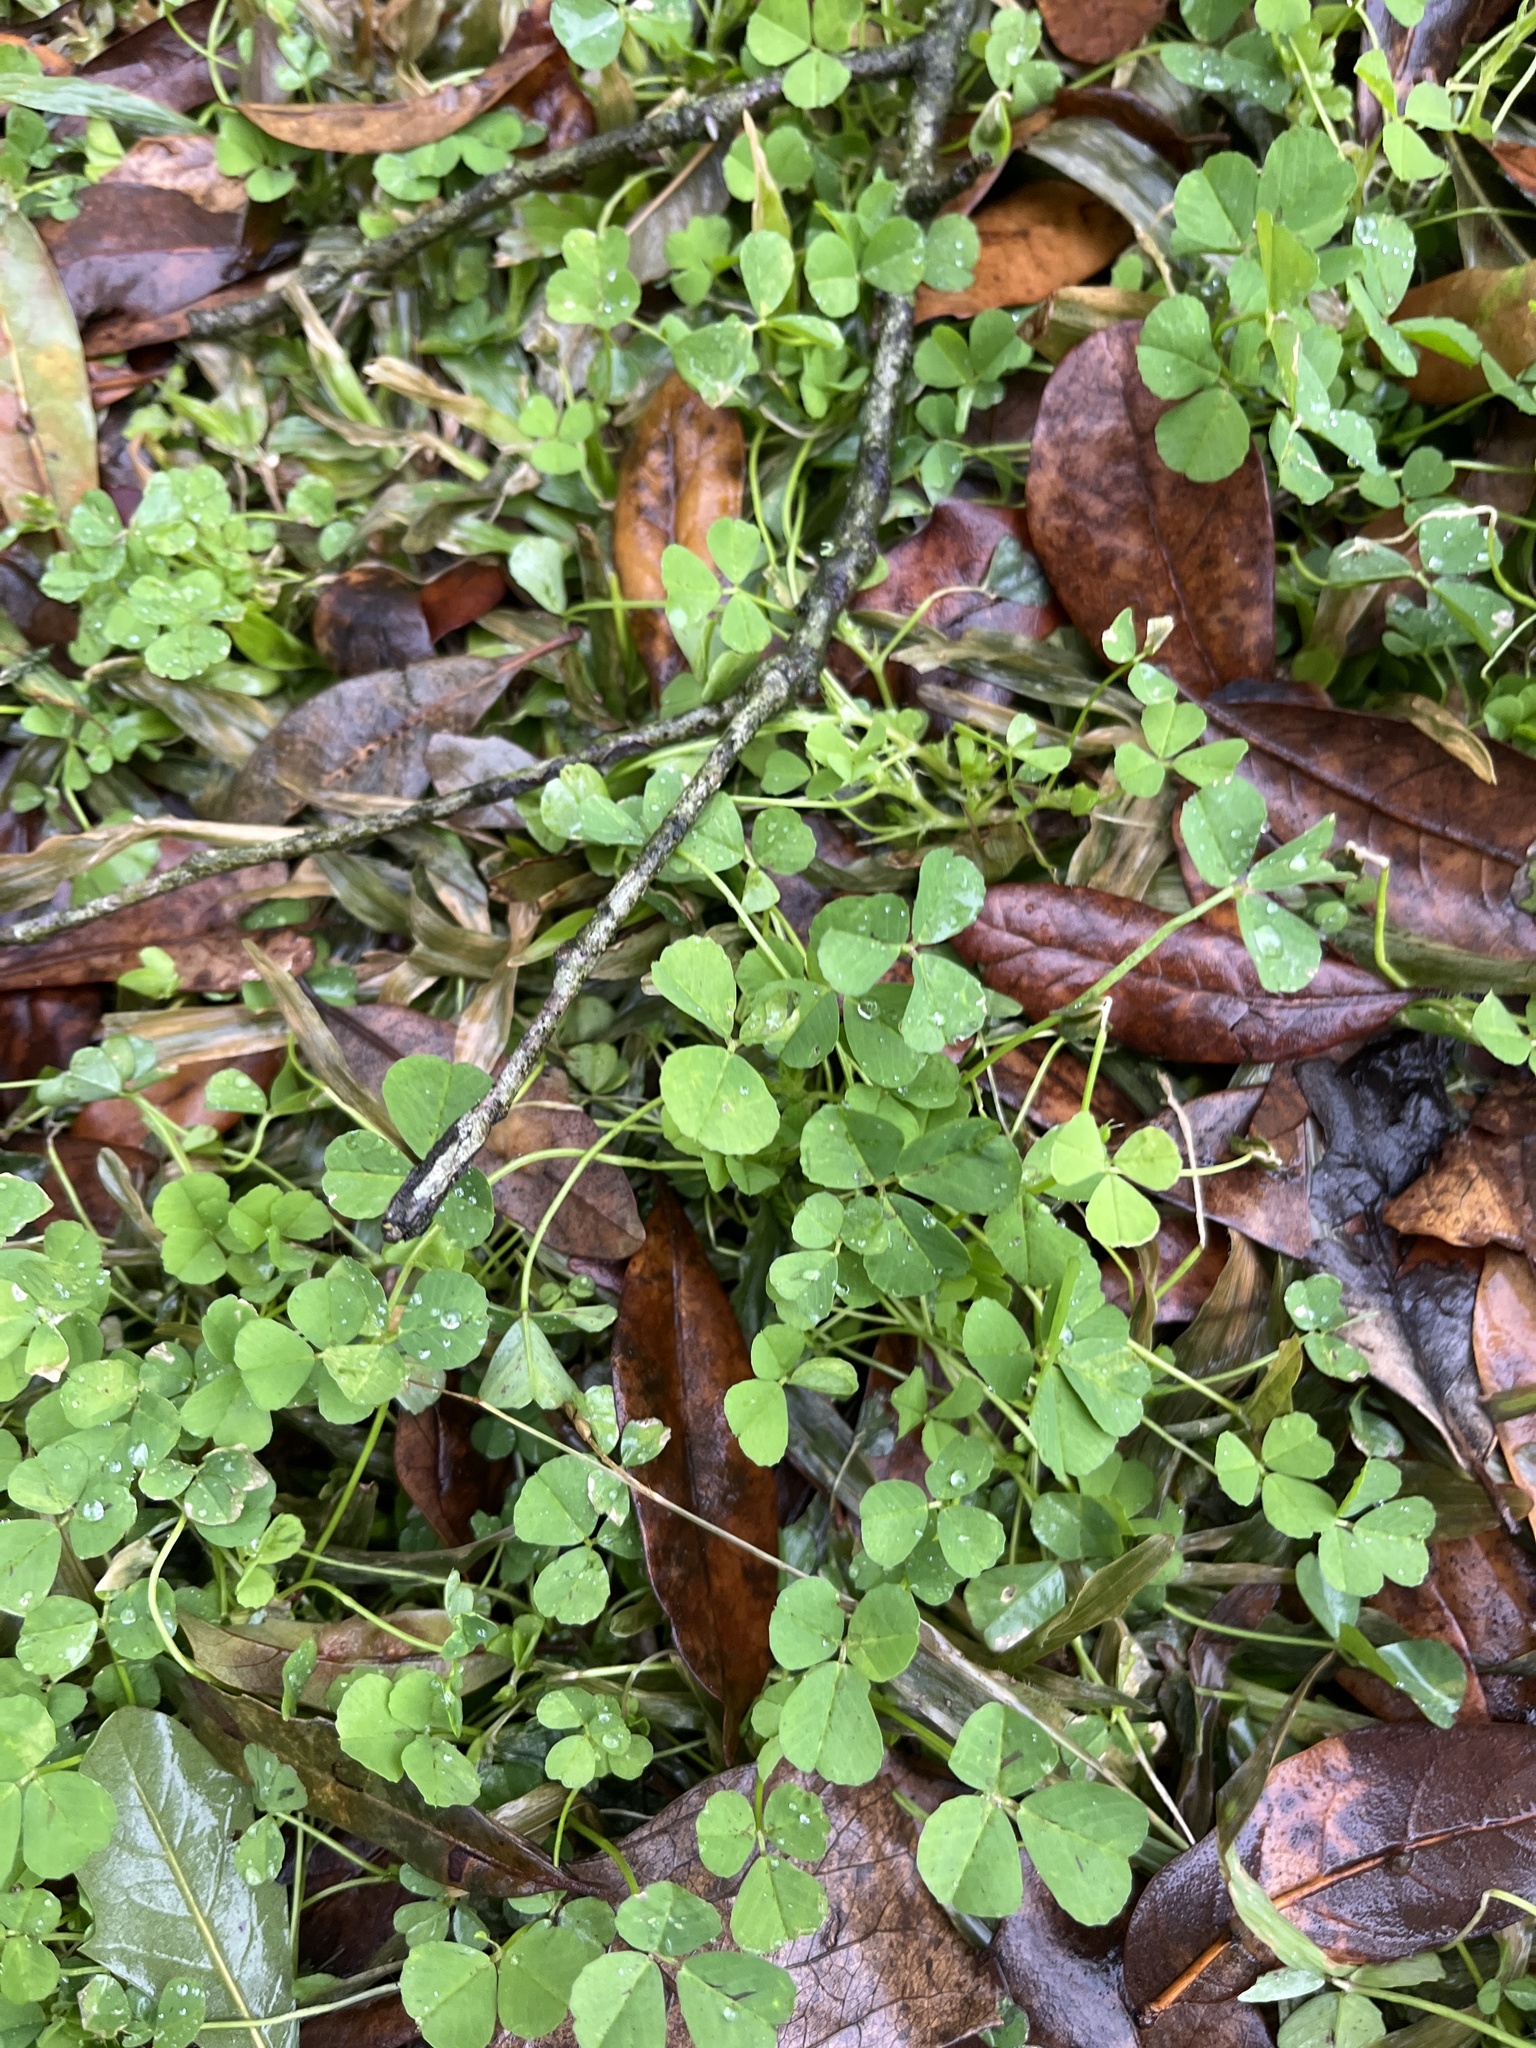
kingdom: Plantae
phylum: Tracheophyta
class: Magnoliopsida
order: Fabales
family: Fabaceae
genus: Medicago
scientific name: Medicago polymorpha
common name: Burclover
